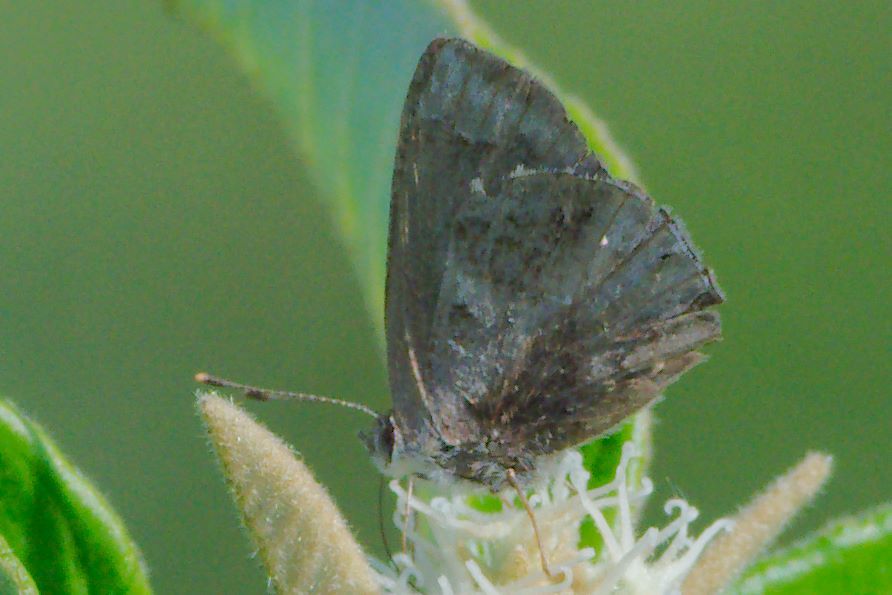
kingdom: Animalia
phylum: Arthropoda
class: Insecta
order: Lepidoptera
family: Lycaenidae
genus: Strymon
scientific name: Strymon bazochii
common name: Lantana scrub-hairstreak
